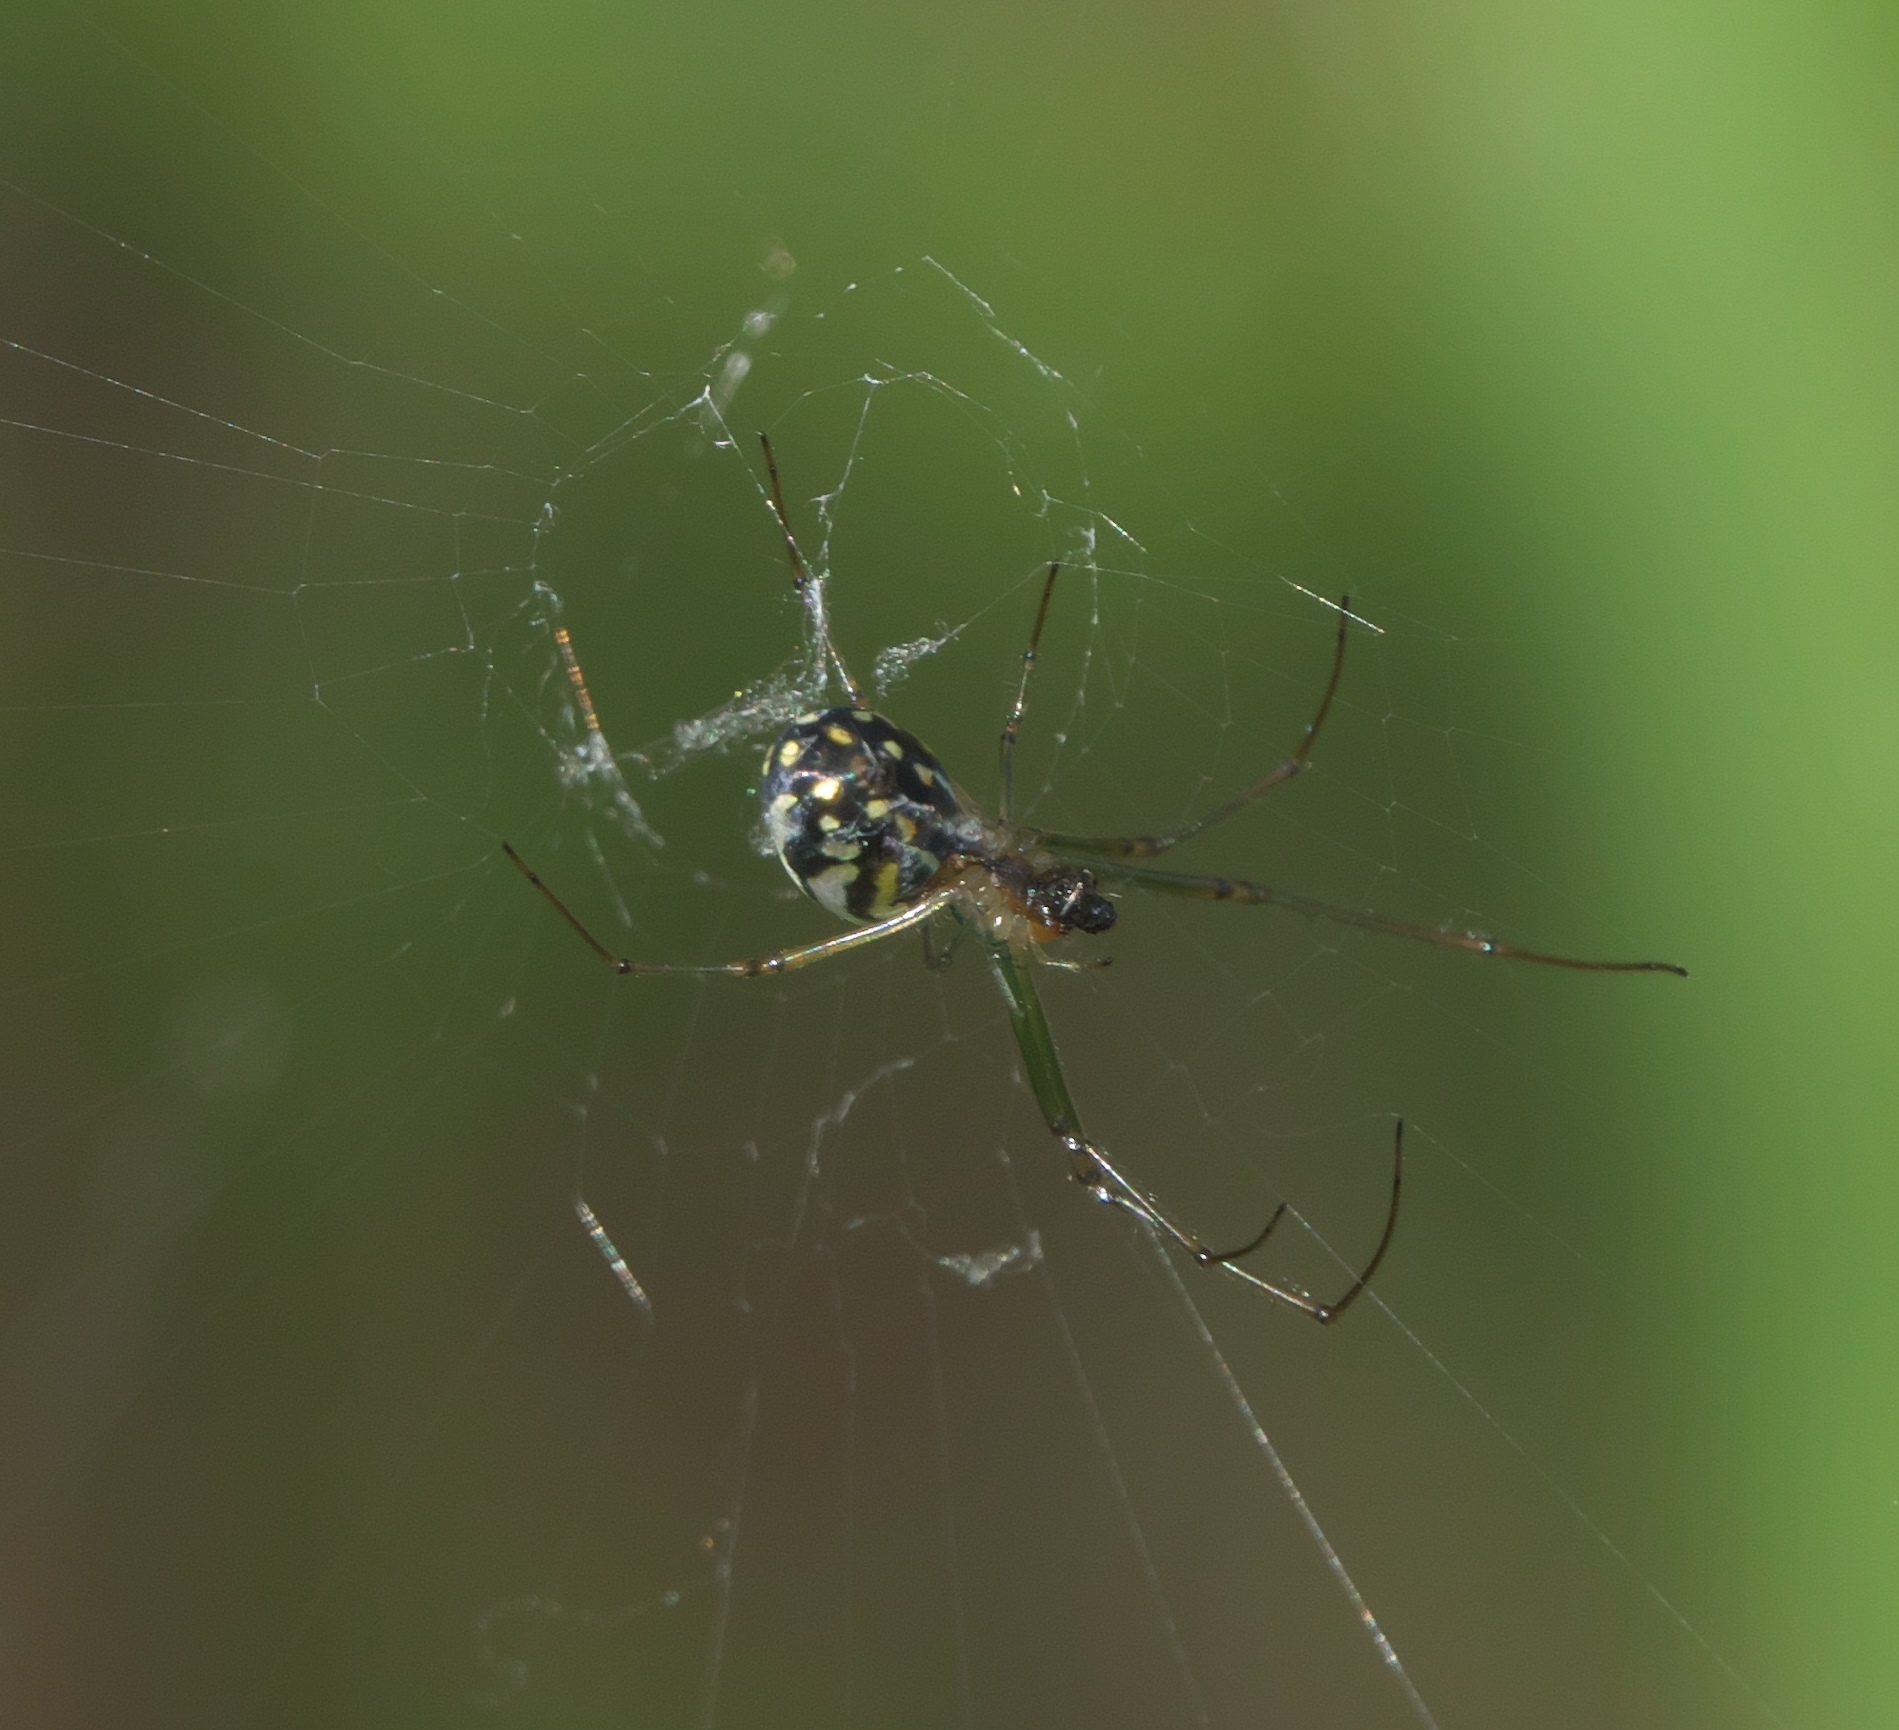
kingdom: Animalia
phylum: Arthropoda
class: Arachnida
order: Araneae
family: Tetragnathidae
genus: Leucauge
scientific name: Leucauge argyra
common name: Longjawed orb weavers
